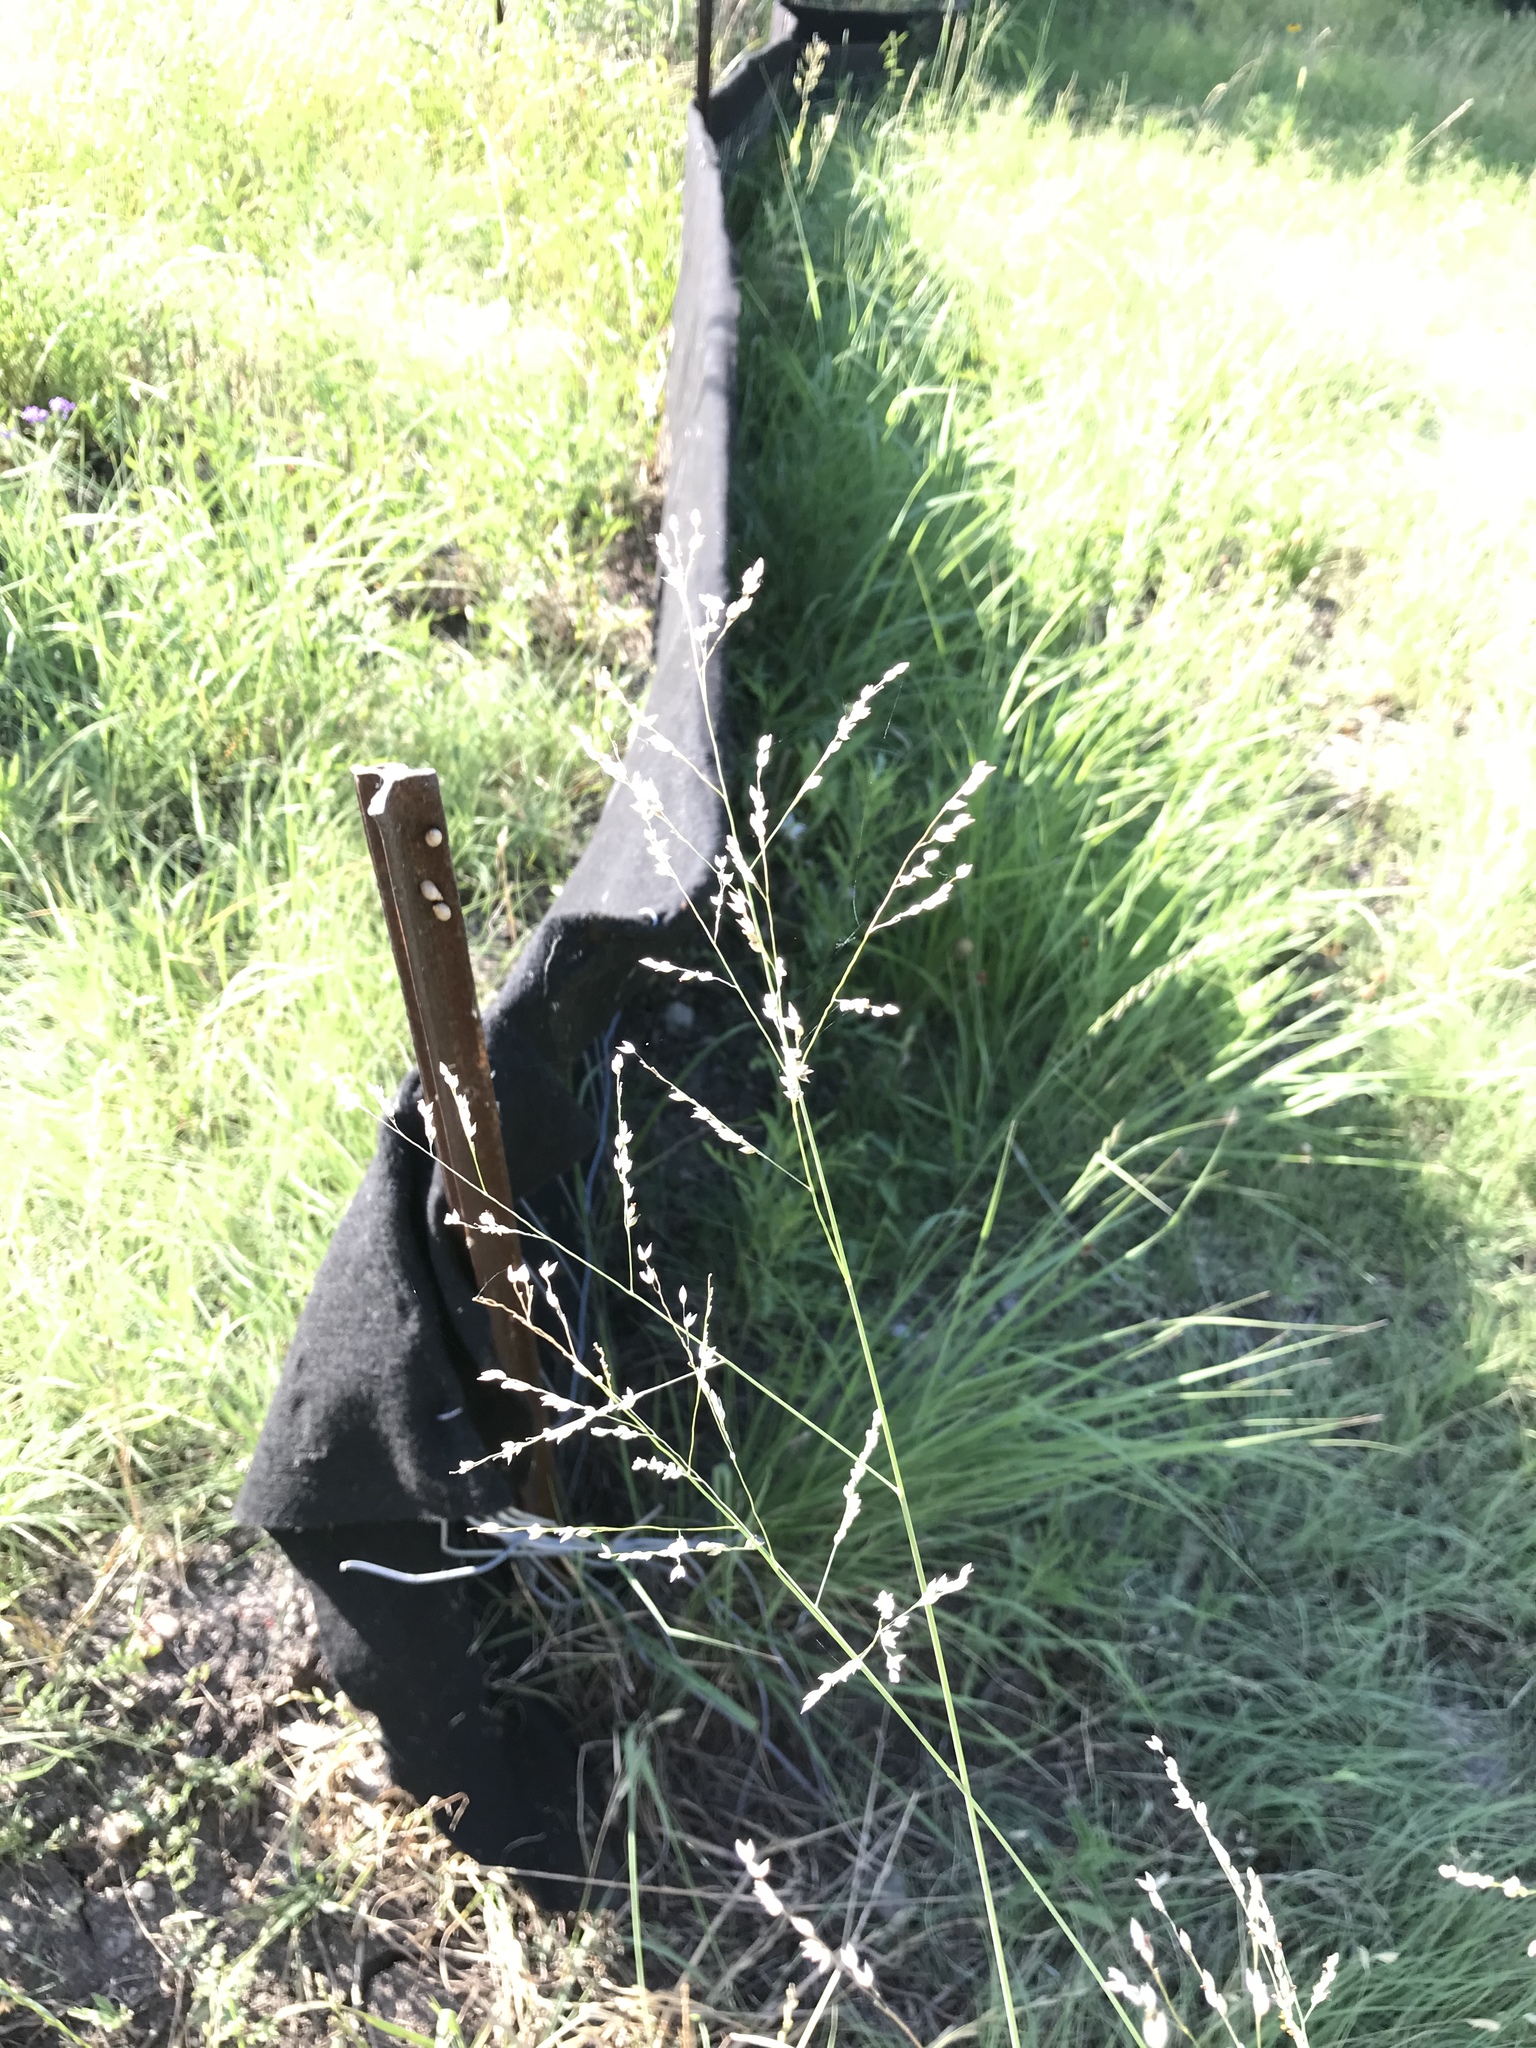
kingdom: Plantae
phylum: Tracheophyta
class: Liliopsida
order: Poales
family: Poaceae
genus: Panicum
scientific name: Panicum coloratum
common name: Kleingrass
